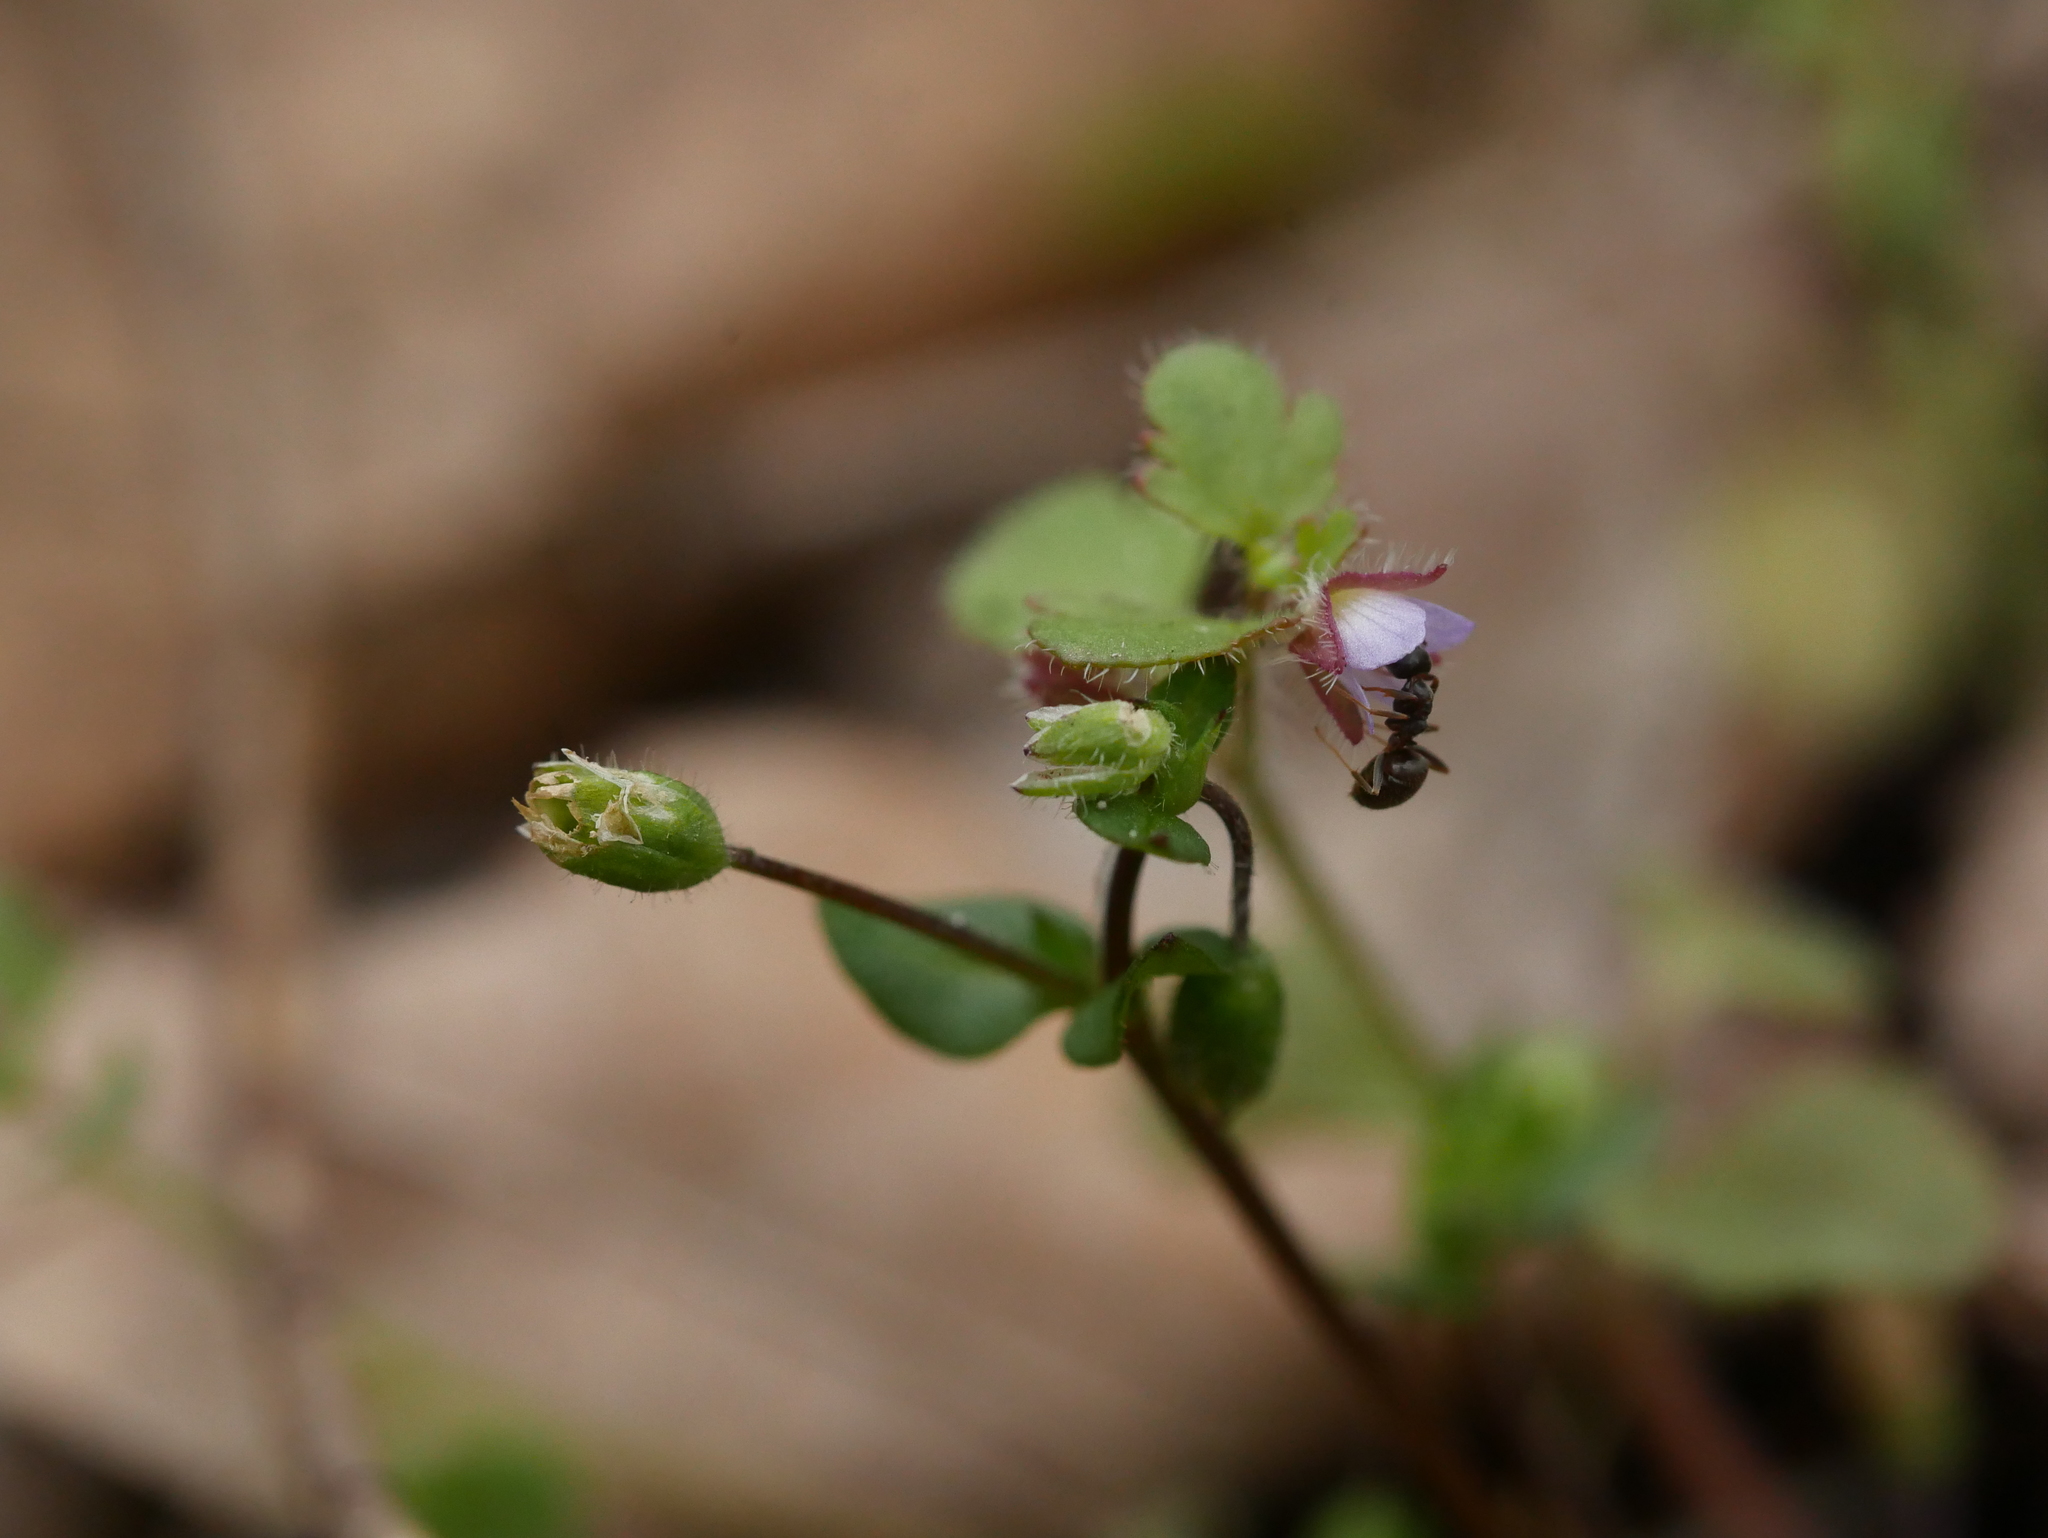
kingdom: Plantae
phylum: Tracheophyta
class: Magnoliopsida
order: Lamiales
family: Plantaginaceae
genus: Veronica
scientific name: Veronica sublobata
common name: False ivy-leaved speedwell
